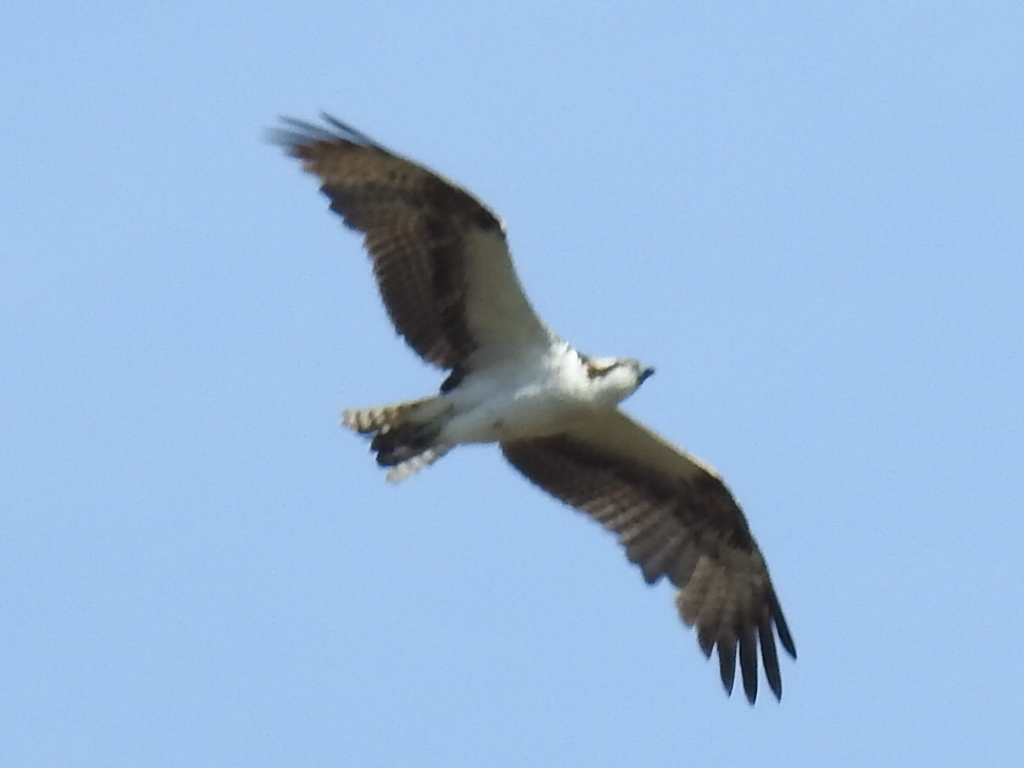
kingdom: Animalia
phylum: Chordata
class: Aves
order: Accipitriformes
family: Pandionidae
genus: Pandion
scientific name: Pandion haliaetus
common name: Osprey
